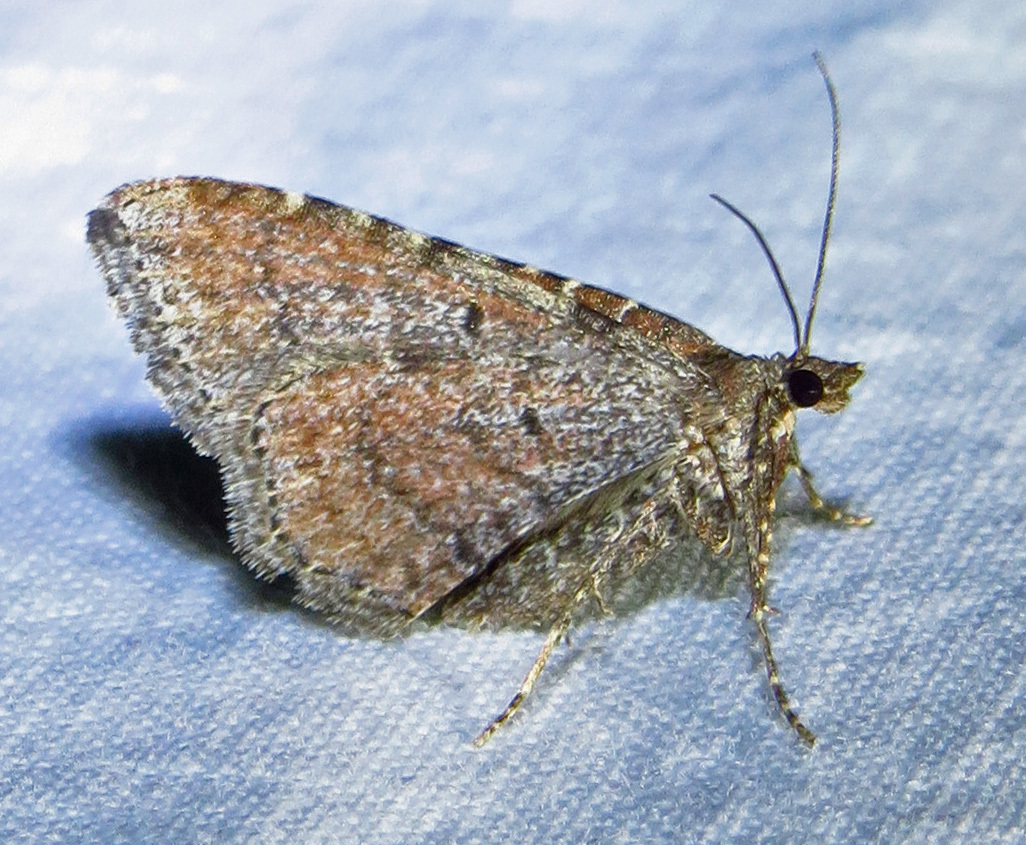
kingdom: Animalia
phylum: Arthropoda
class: Insecta
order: Lepidoptera
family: Geometridae
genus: Orthonama
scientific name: Orthonama obstipata
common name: The gem
